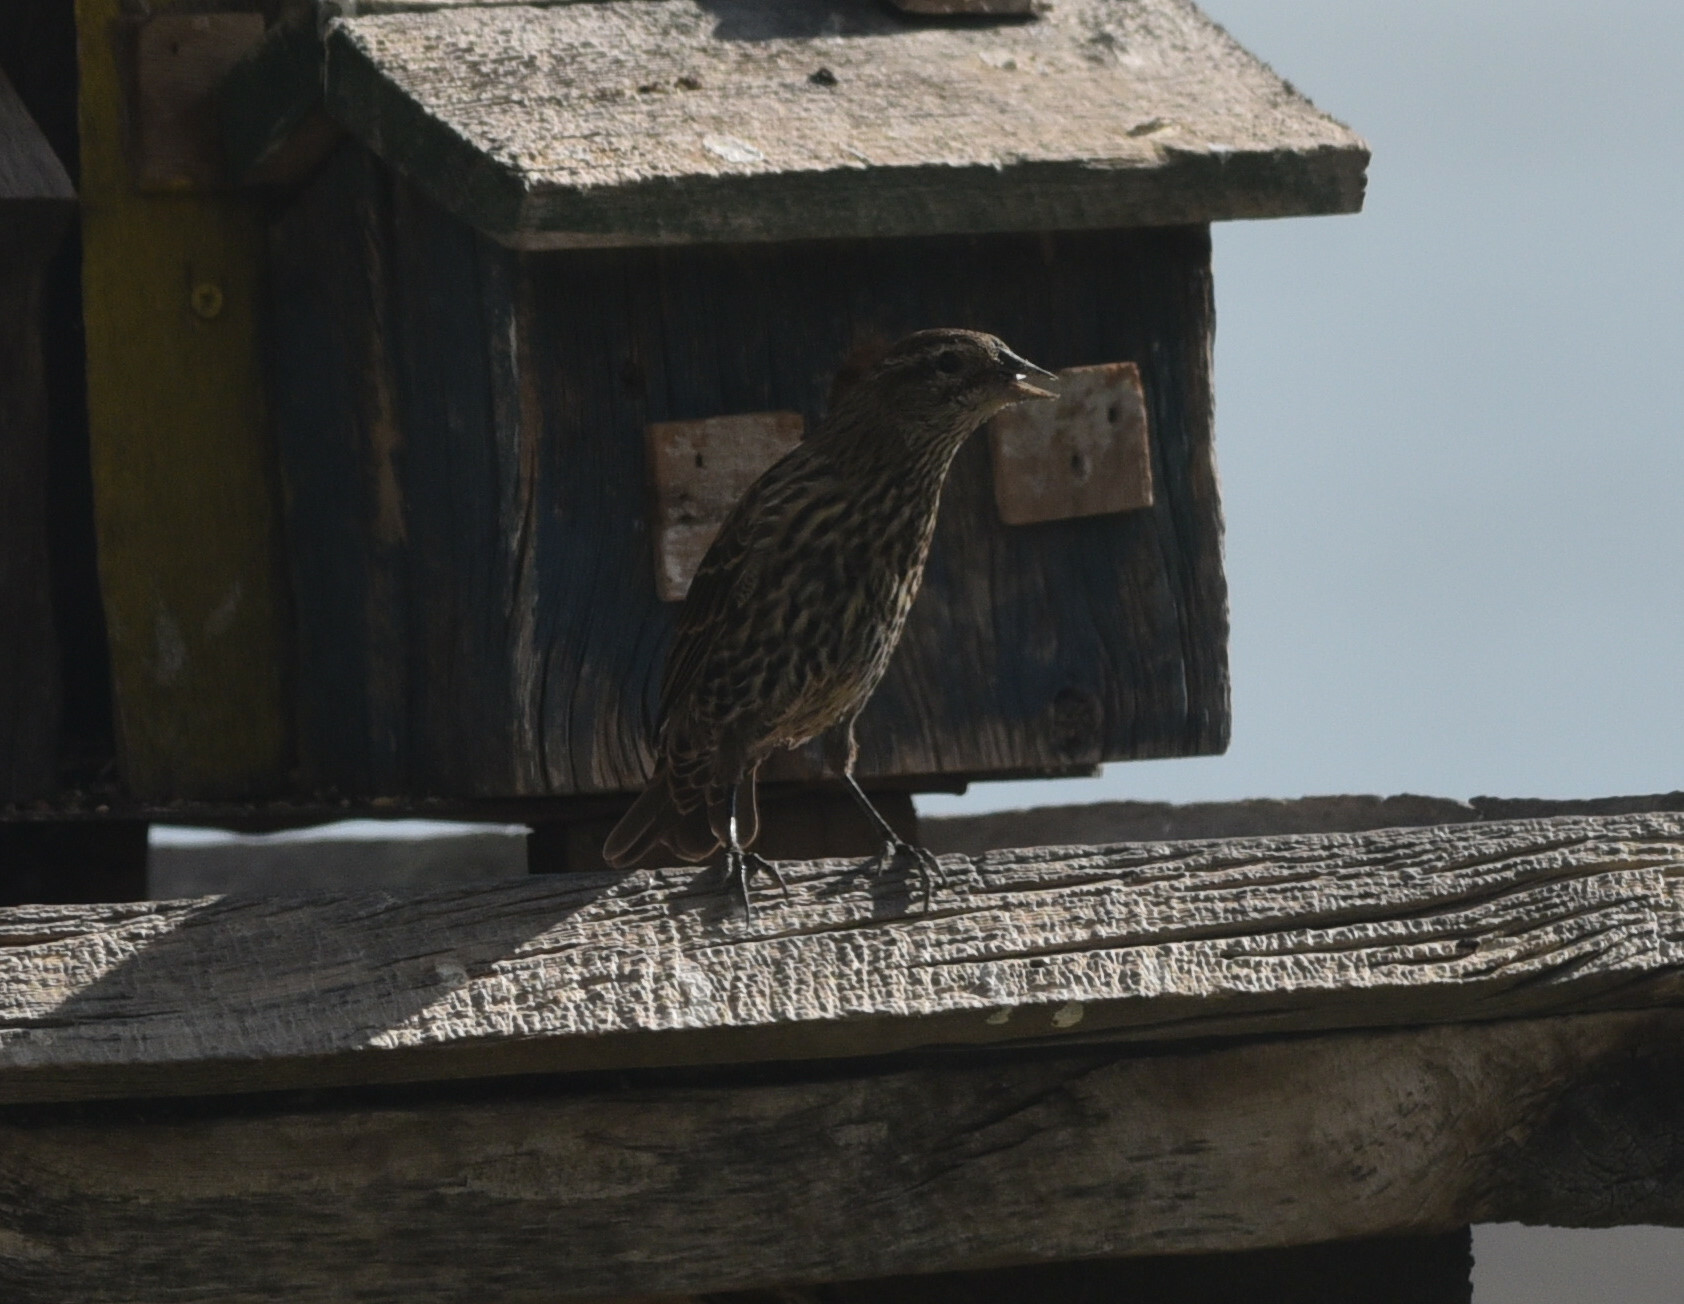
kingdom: Animalia
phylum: Chordata
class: Aves
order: Passeriformes
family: Icteridae
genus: Agelaius
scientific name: Agelaius phoeniceus
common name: Red-winged blackbird
